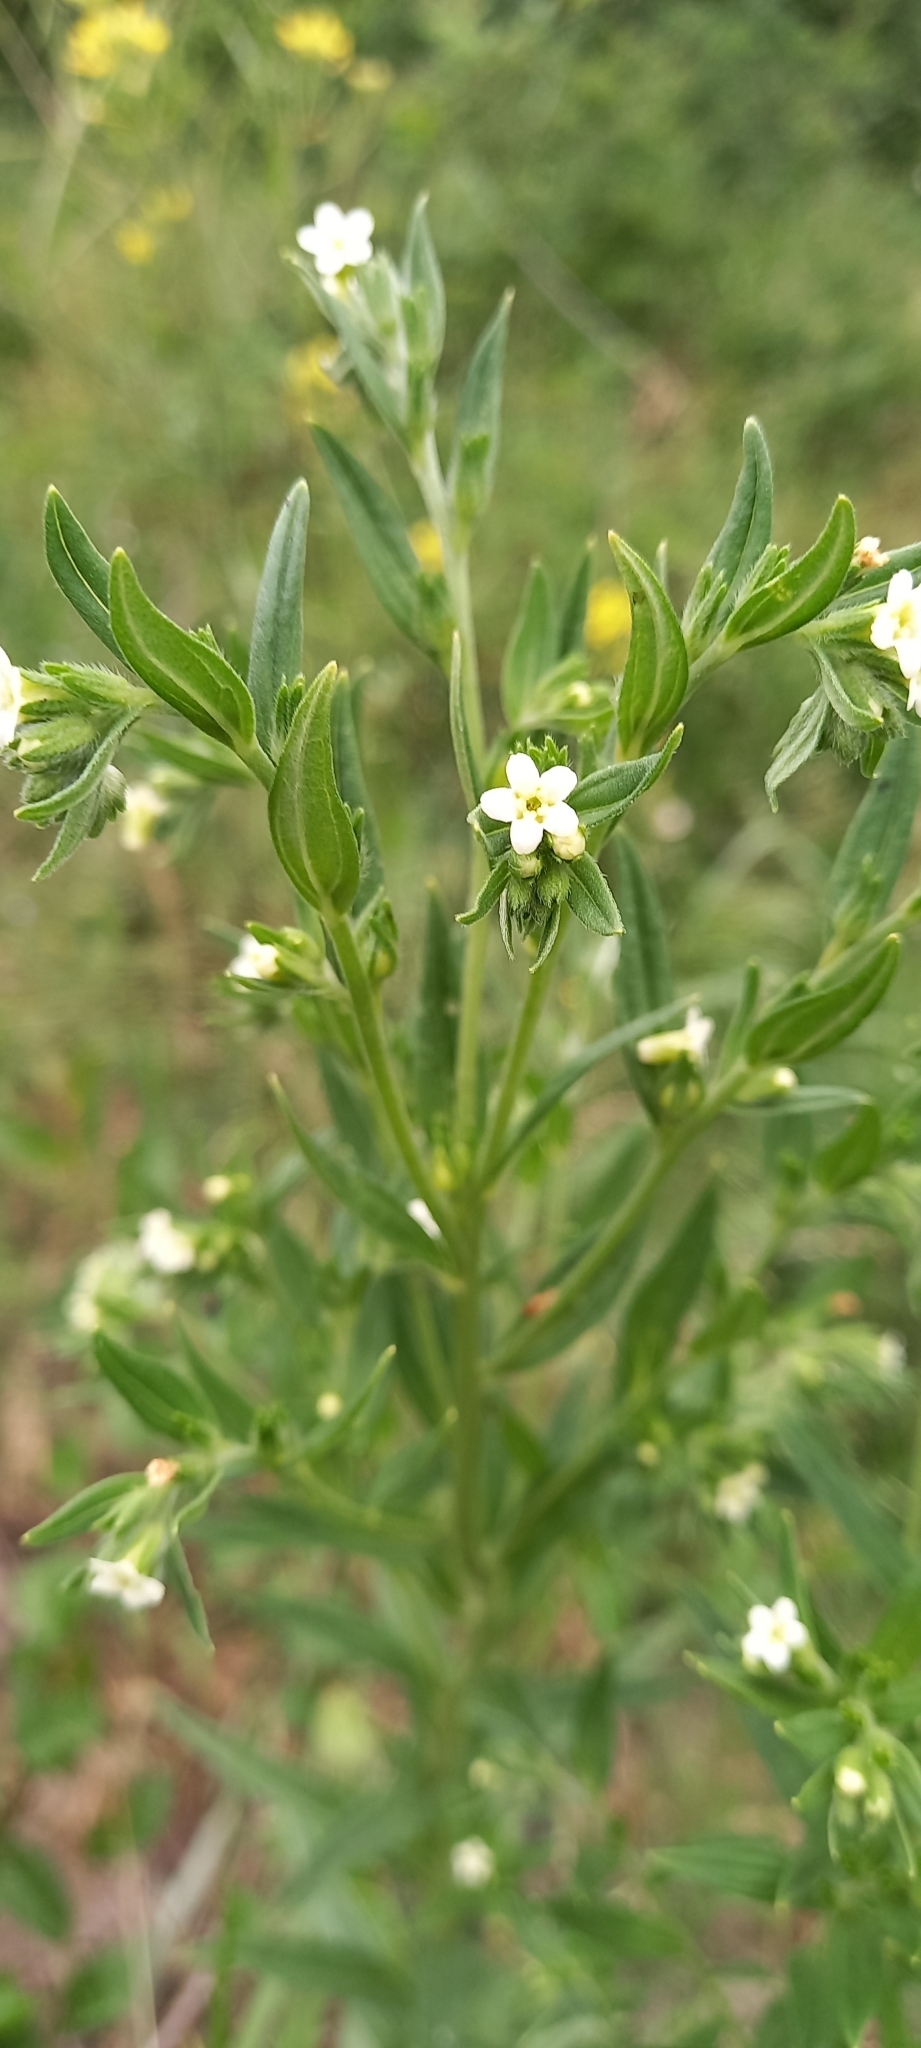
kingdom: Plantae
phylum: Tracheophyta
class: Magnoliopsida
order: Boraginales
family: Boraginaceae
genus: Lithospermum
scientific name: Lithospermum officinale
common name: Common gromwell
